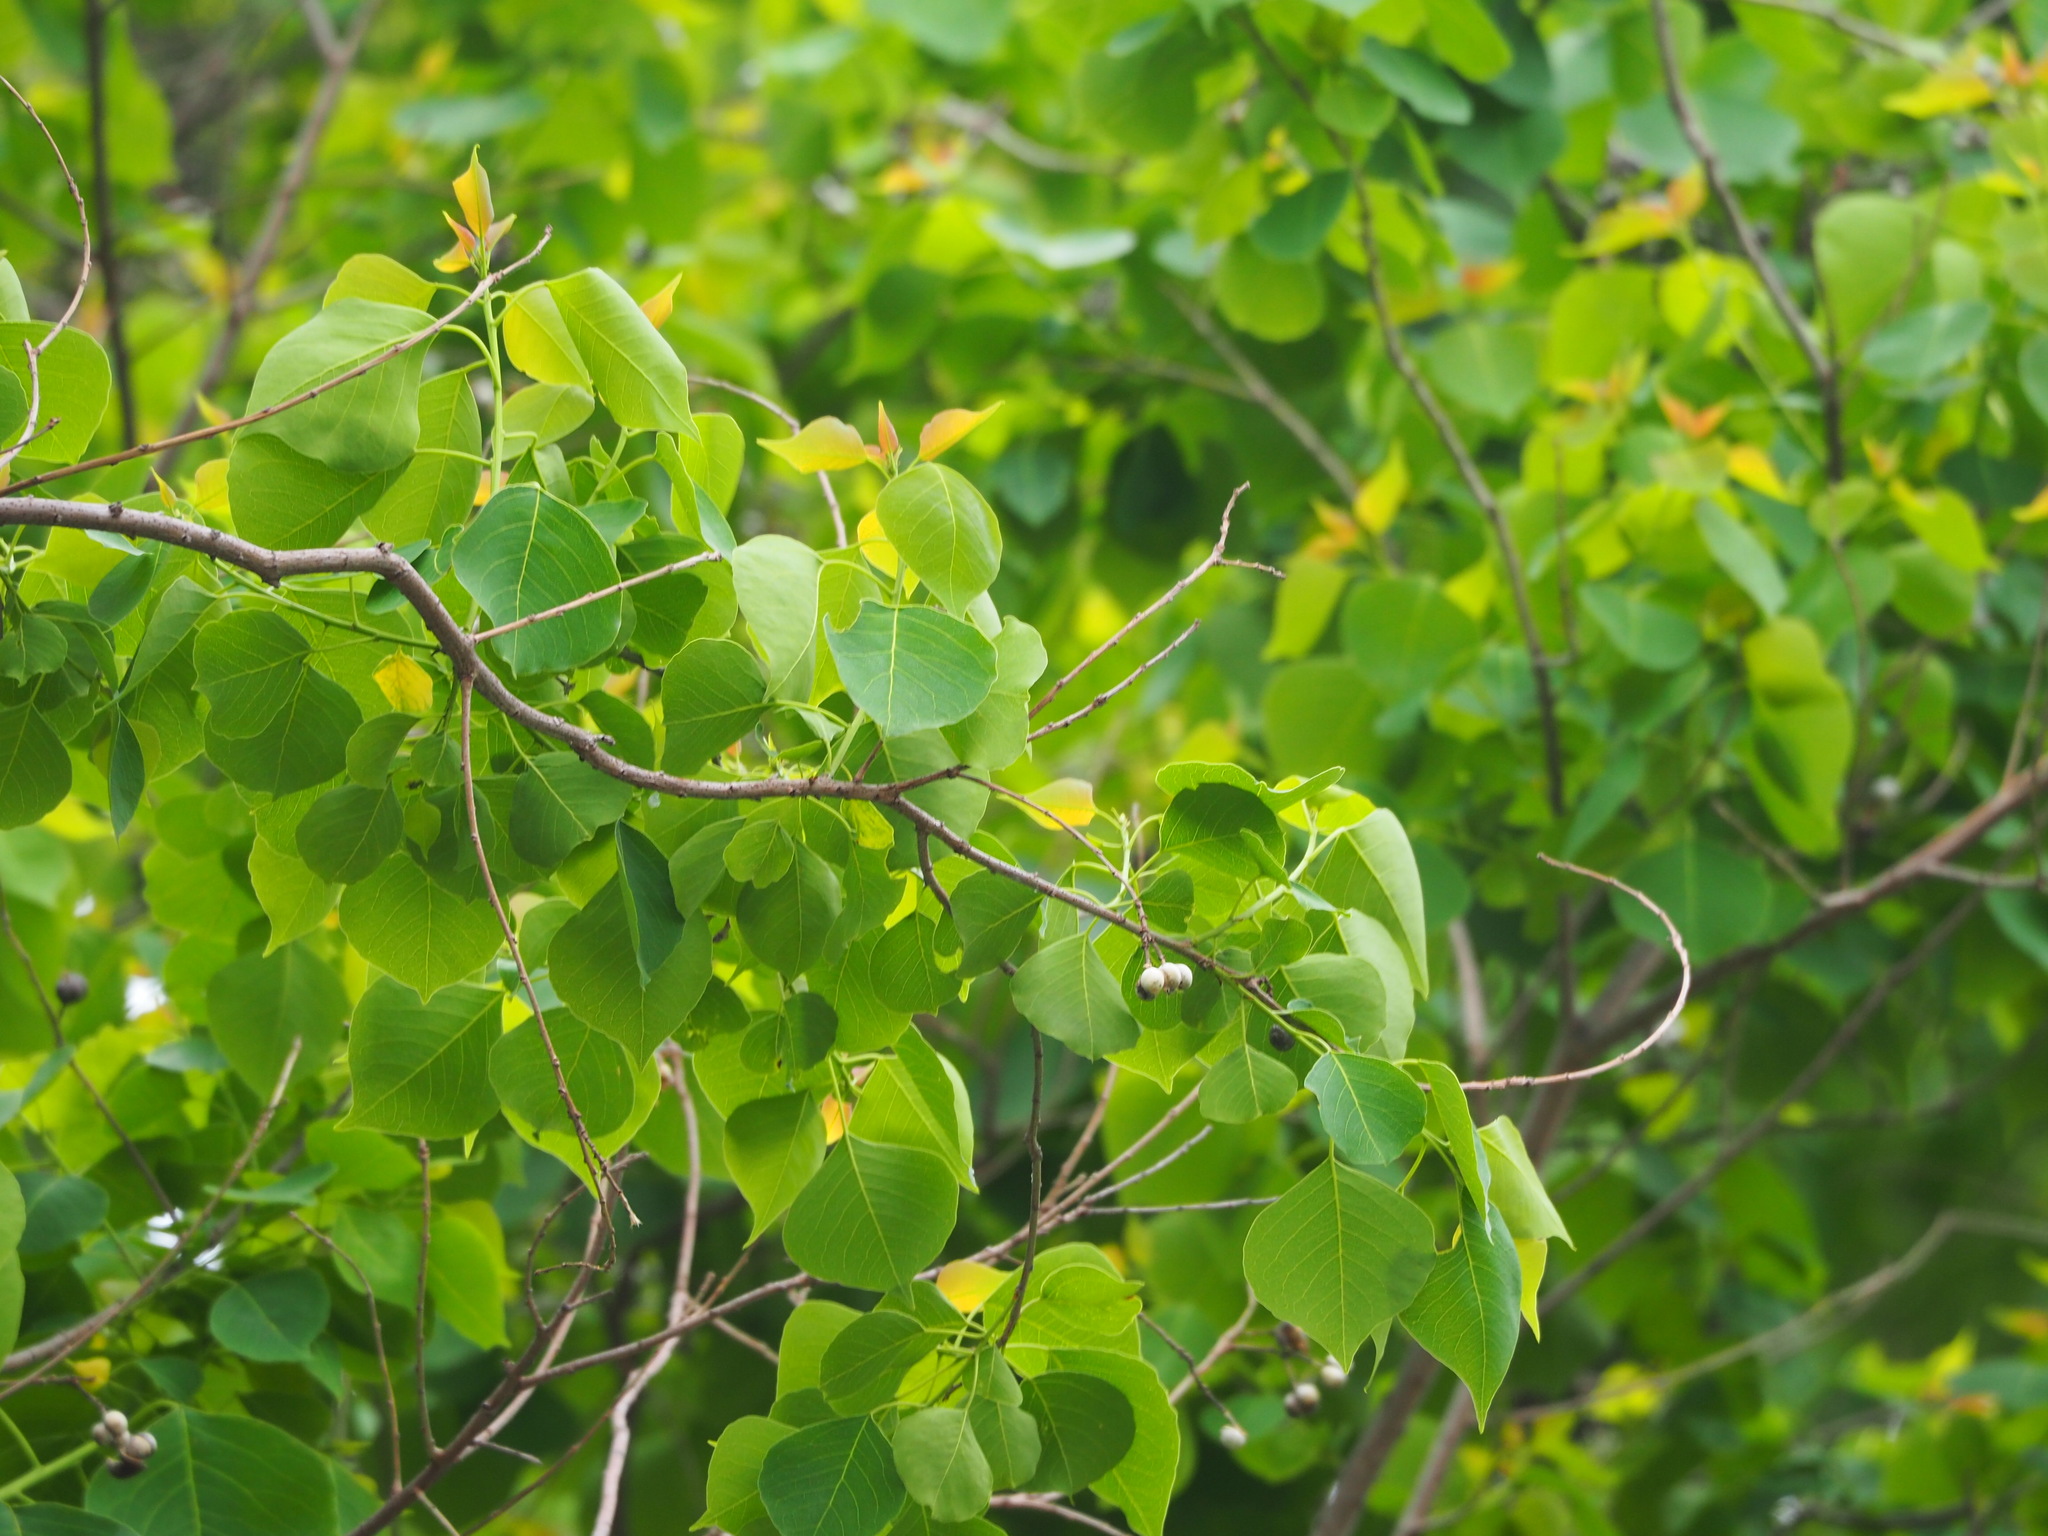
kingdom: Plantae
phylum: Tracheophyta
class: Magnoliopsida
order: Malpighiales
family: Euphorbiaceae
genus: Triadica
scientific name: Triadica sebifera
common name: Chinese tallow
